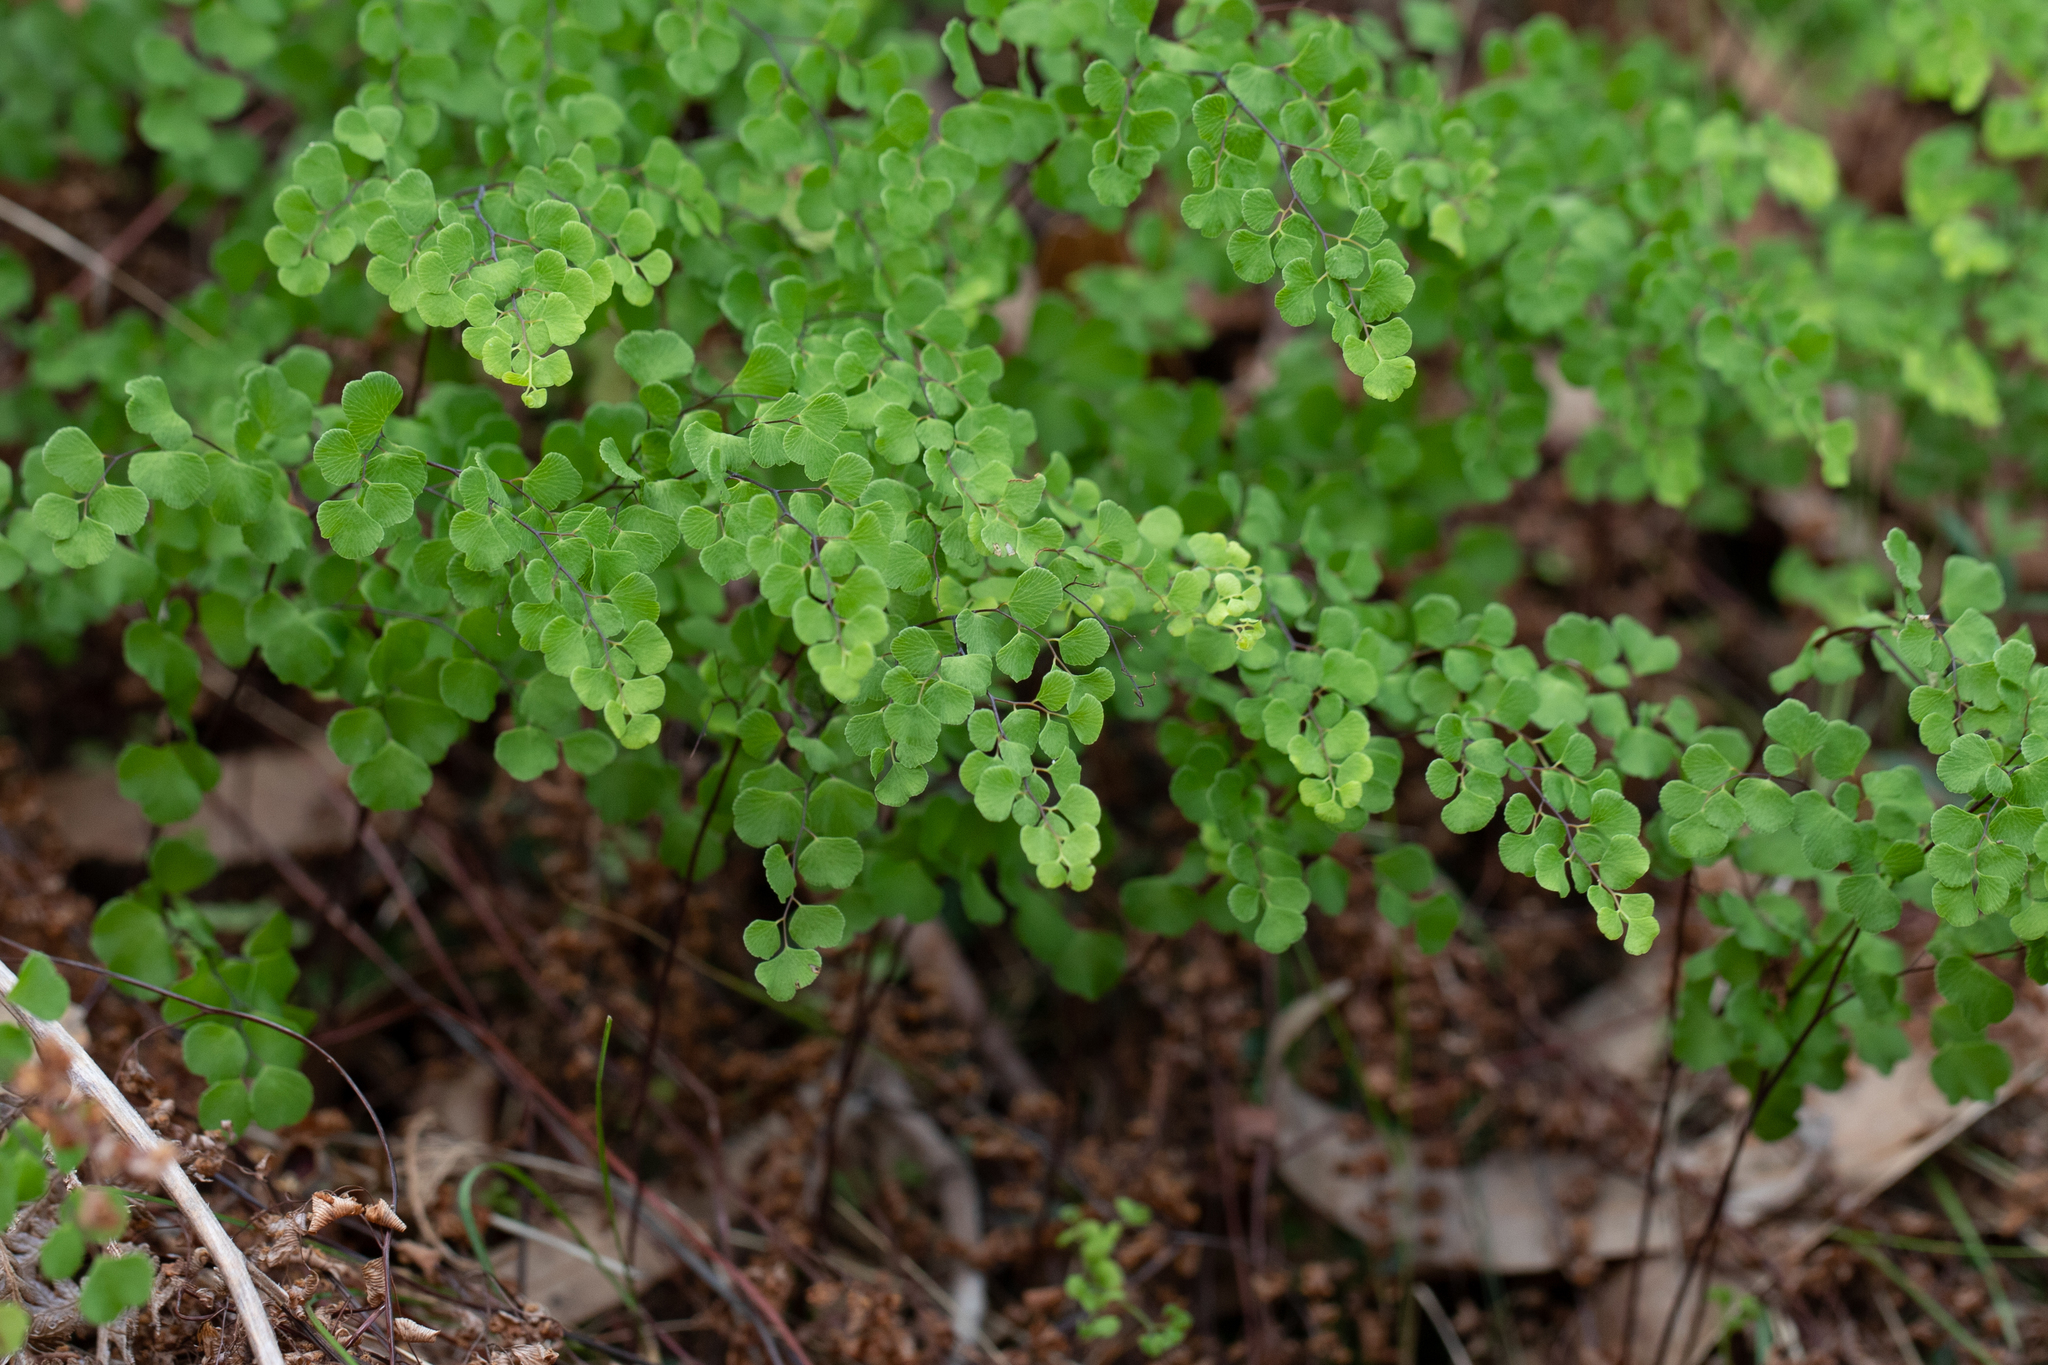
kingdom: Plantae
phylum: Tracheophyta
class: Polypodiopsida
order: Polypodiales
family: Pteridaceae
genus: Adiantum
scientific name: Adiantum aethiopicum
